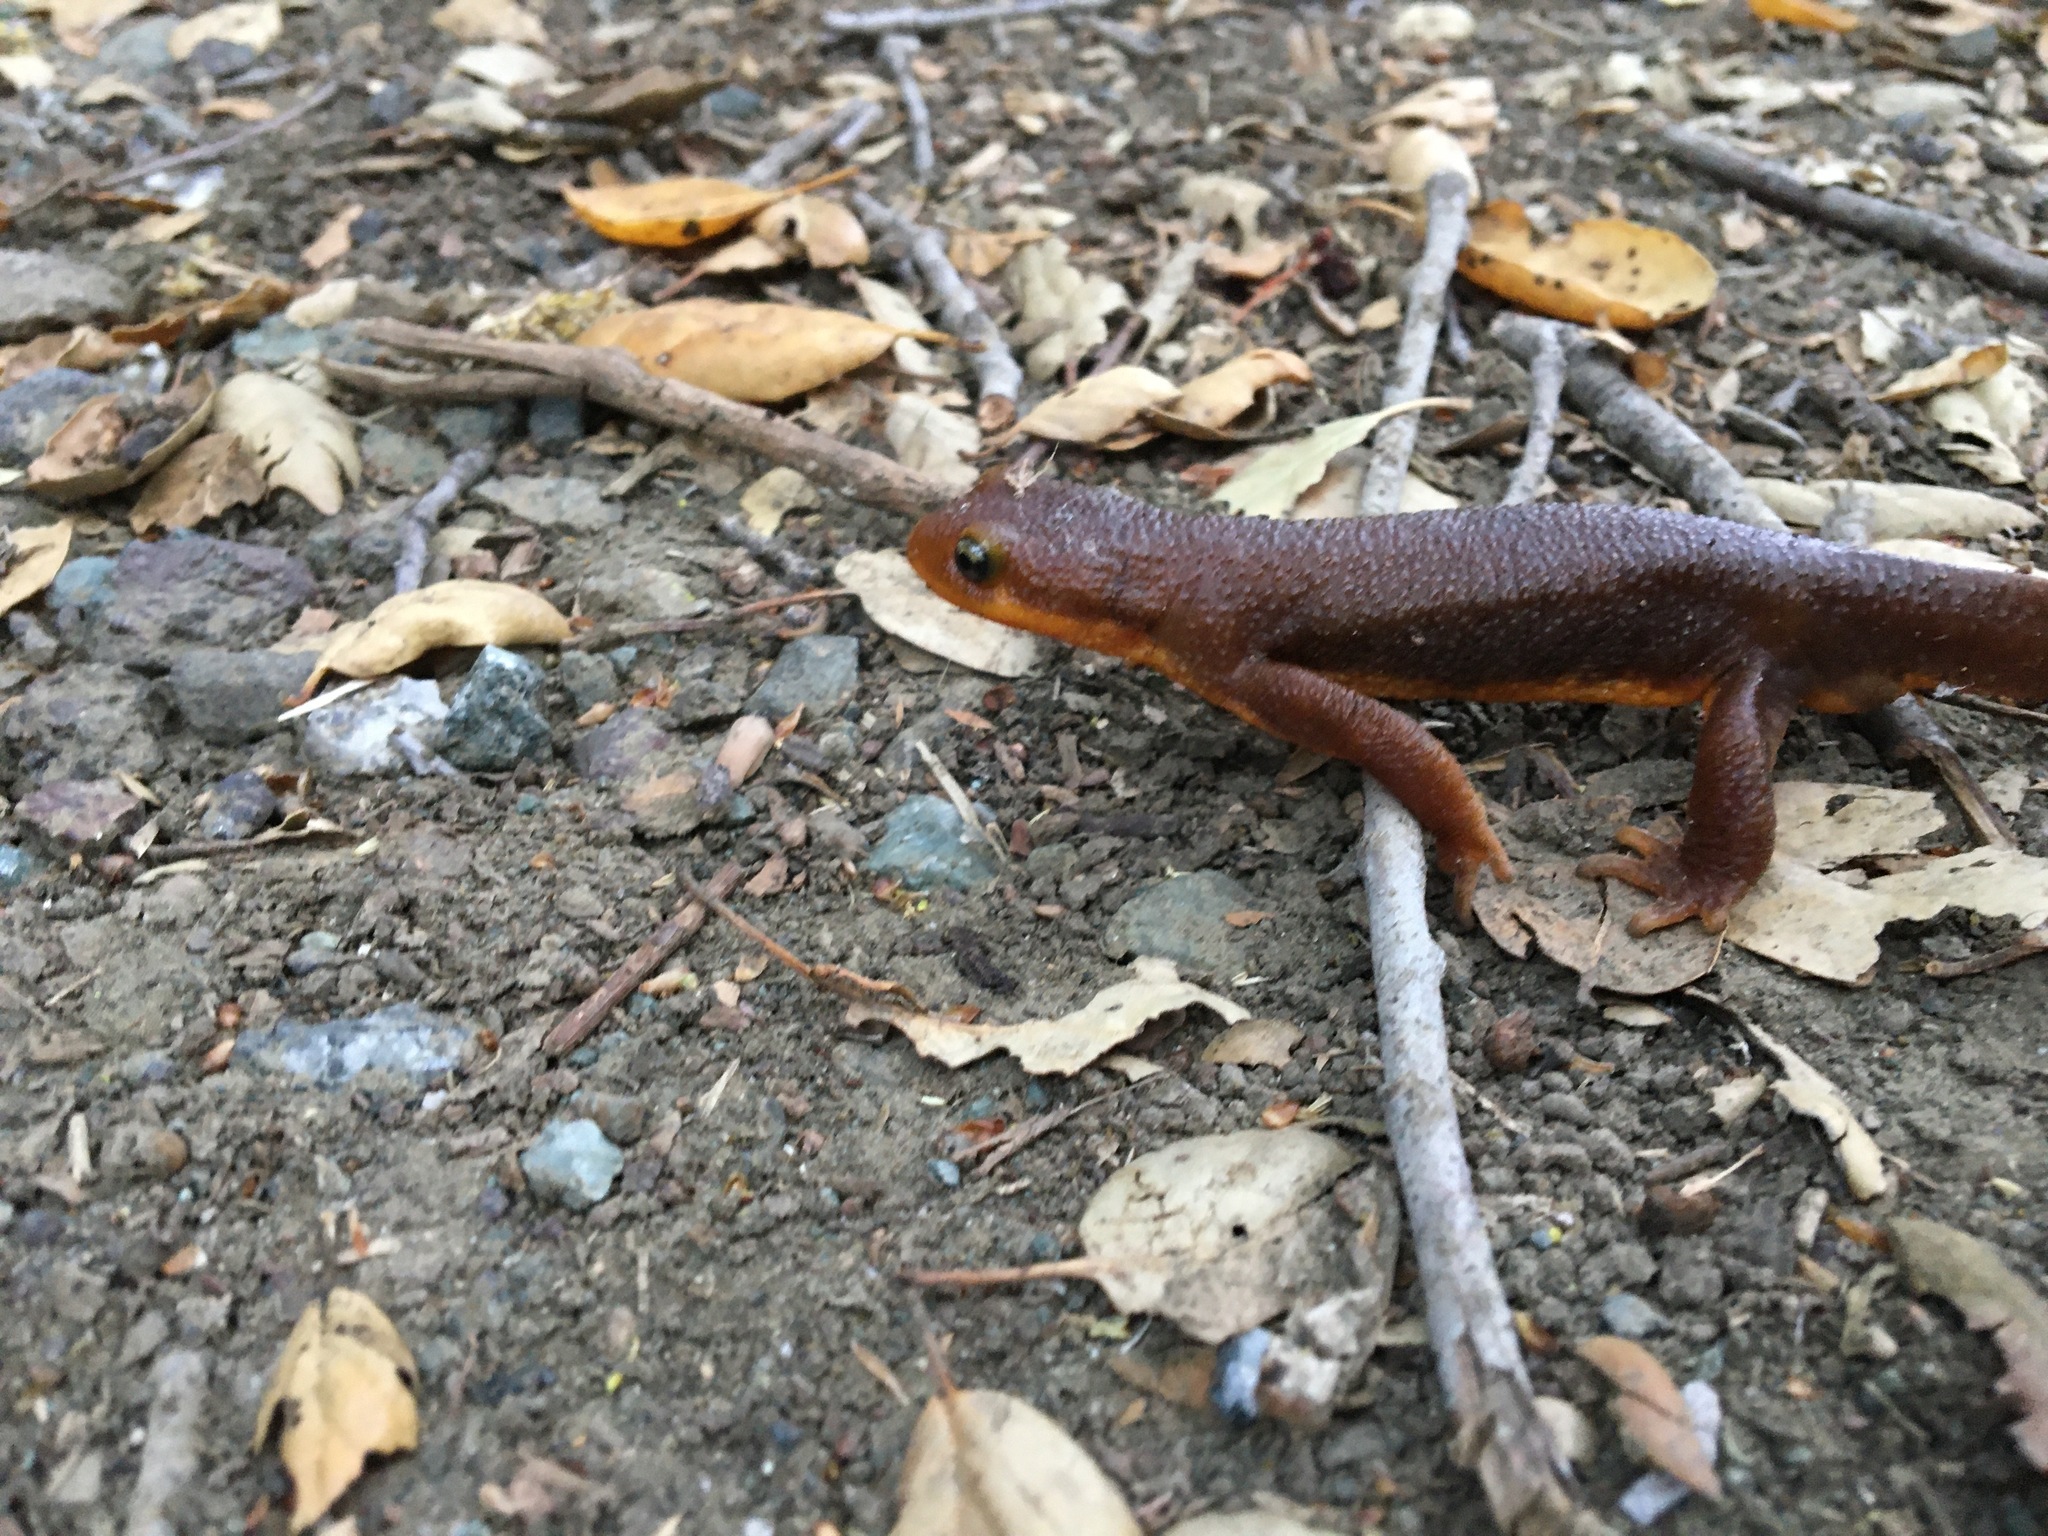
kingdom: Animalia
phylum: Chordata
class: Amphibia
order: Caudata
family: Salamandridae
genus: Taricha
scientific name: Taricha torosa
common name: California newt
